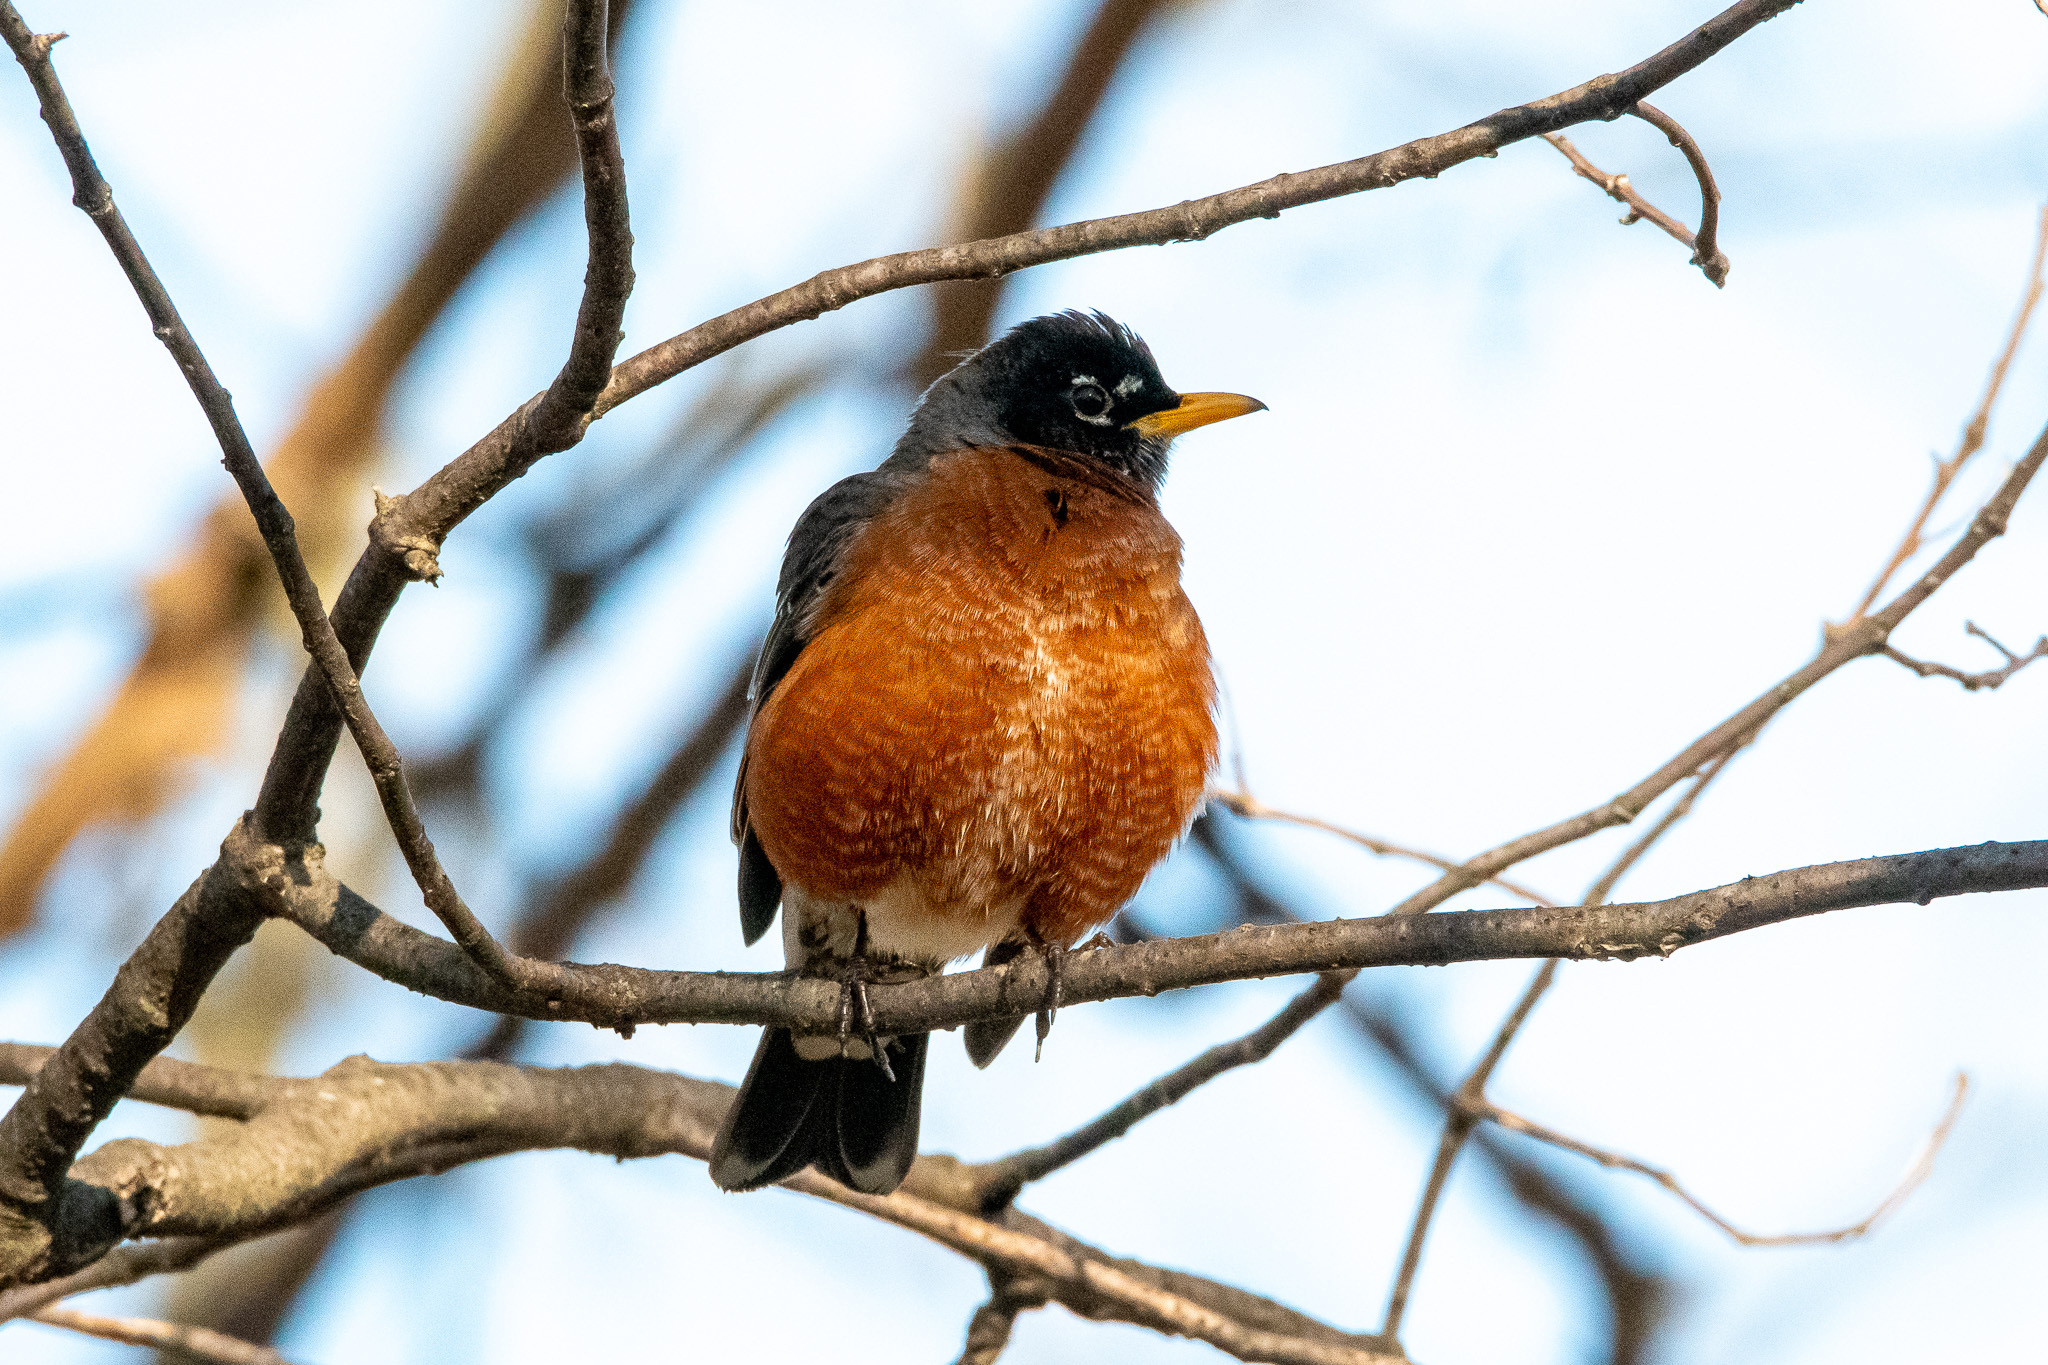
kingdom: Animalia
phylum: Chordata
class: Aves
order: Passeriformes
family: Turdidae
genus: Turdus
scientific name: Turdus migratorius
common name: American robin
